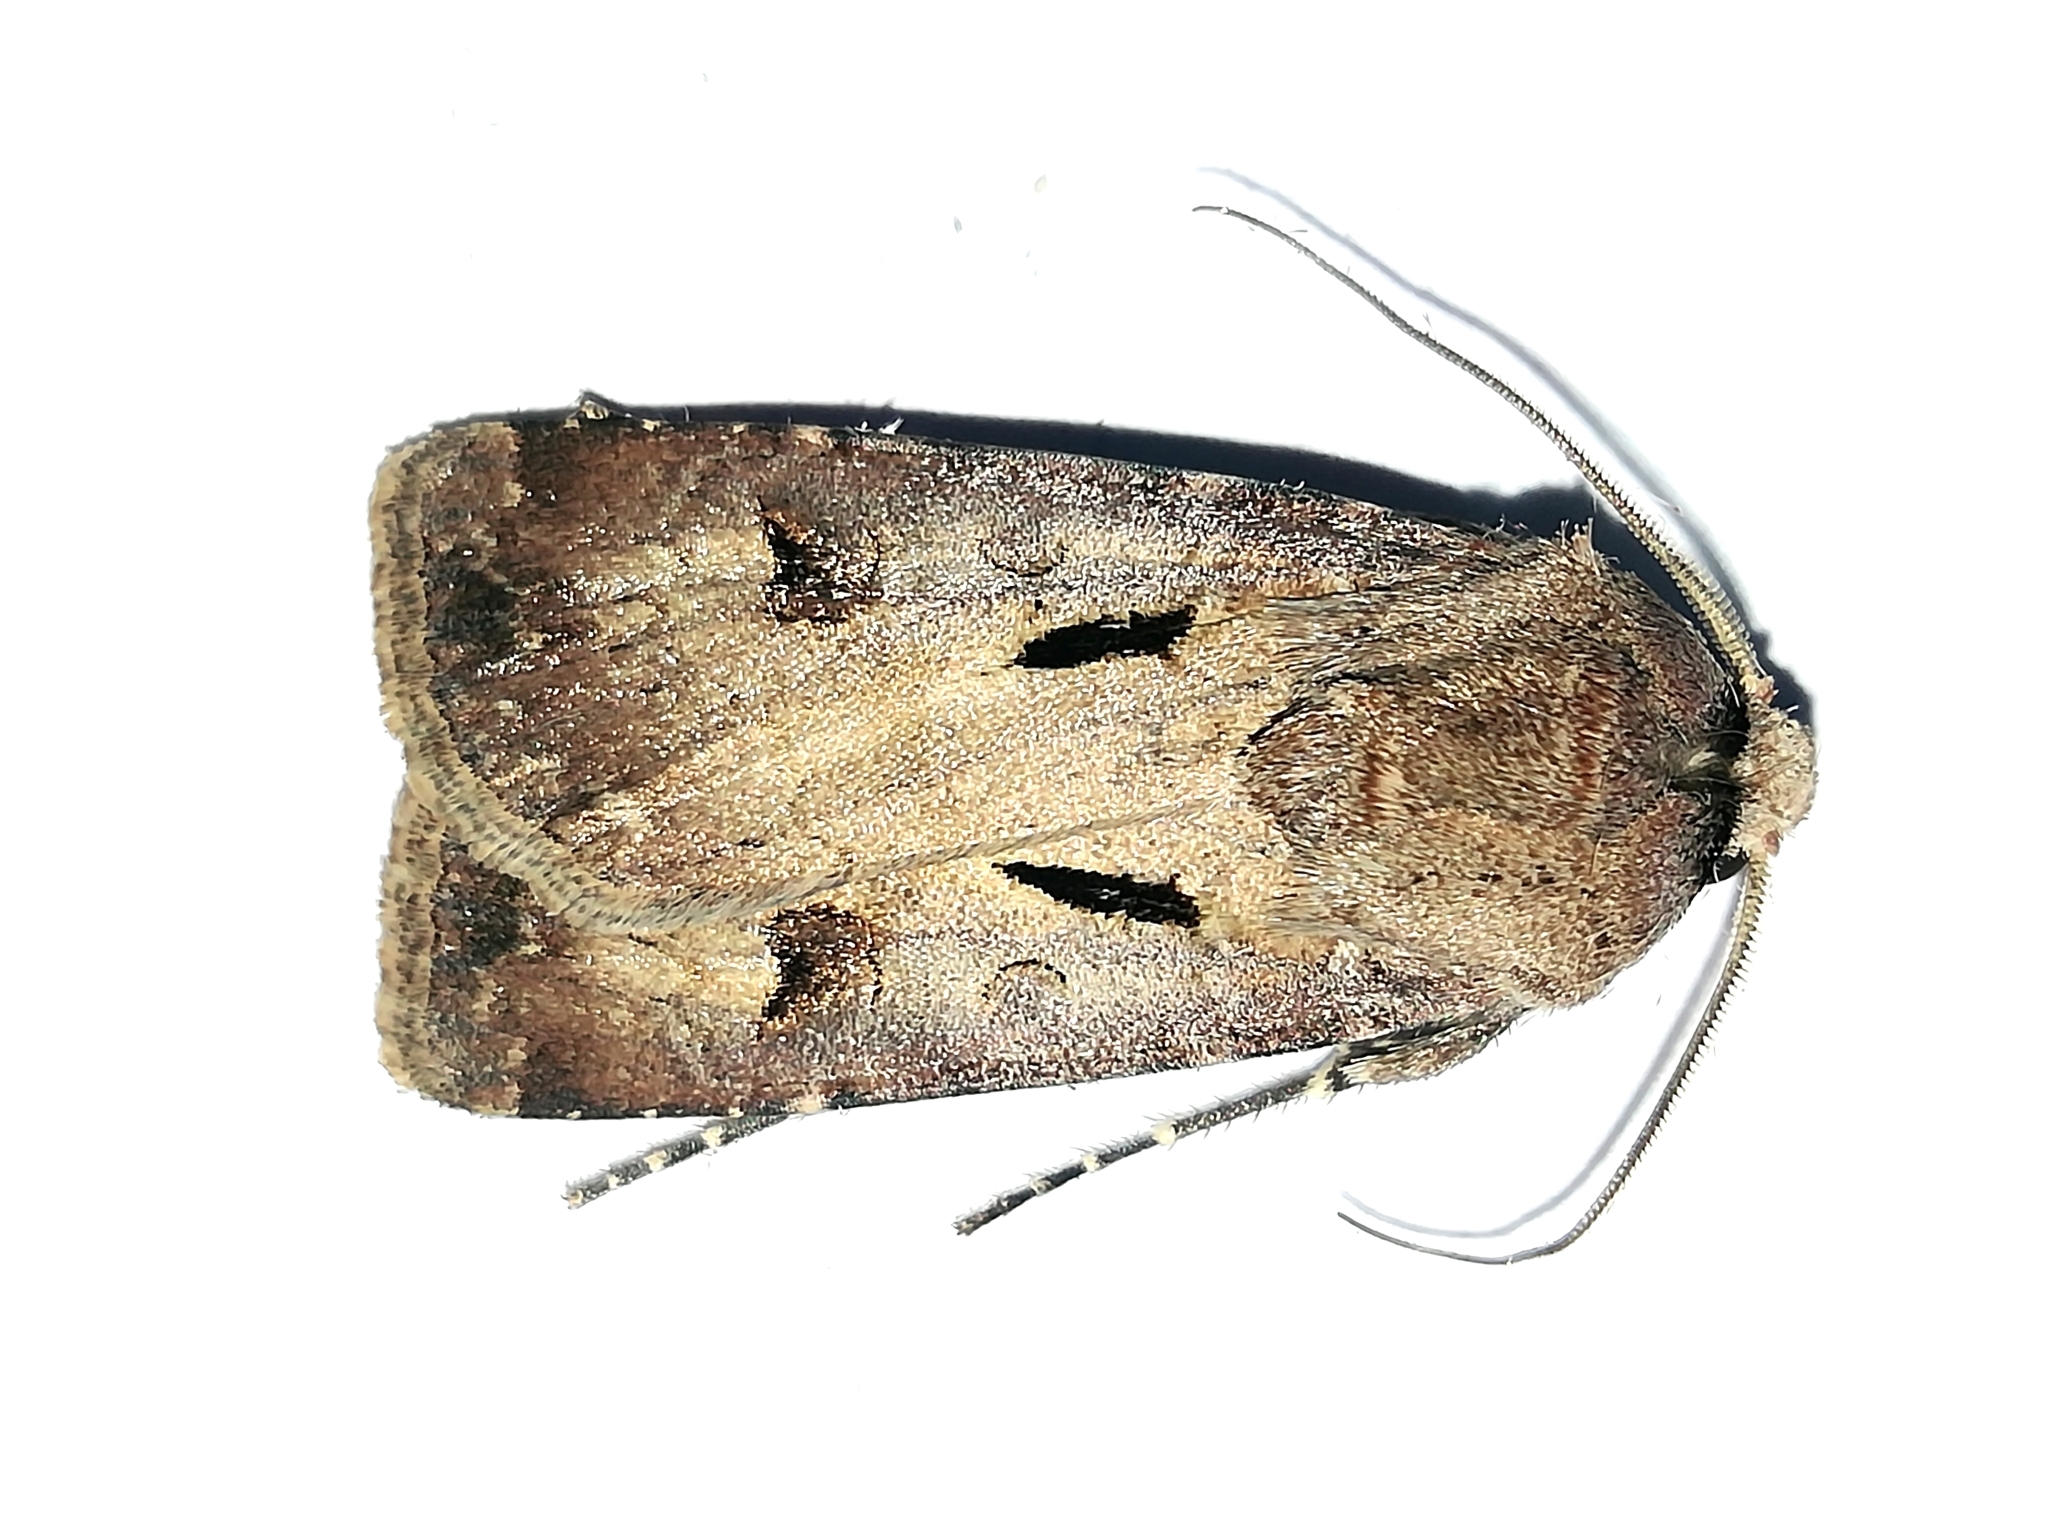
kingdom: Animalia
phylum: Arthropoda
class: Insecta
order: Lepidoptera
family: Noctuidae
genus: Agrotis
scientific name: Agrotis exclamationis
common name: Heart and dart
